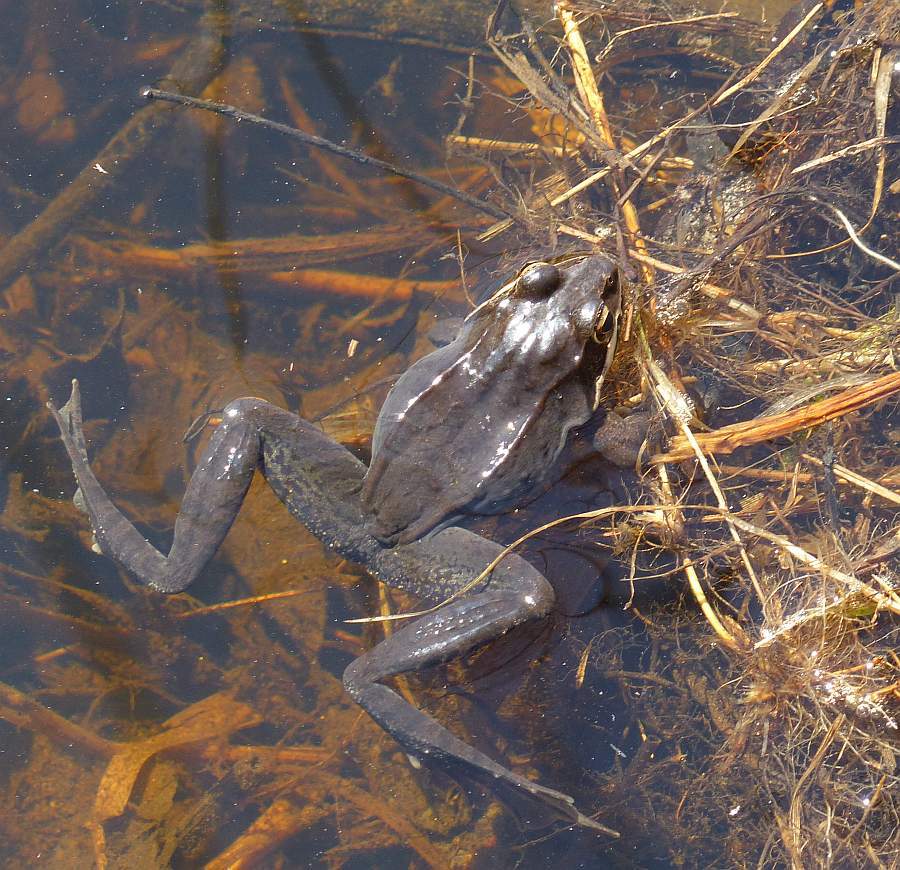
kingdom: Animalia
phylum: Chordata
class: Amphibia
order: Anura
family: Ranidae
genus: Lithobates
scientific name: Lithobates sylvaticus
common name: Wood frog
